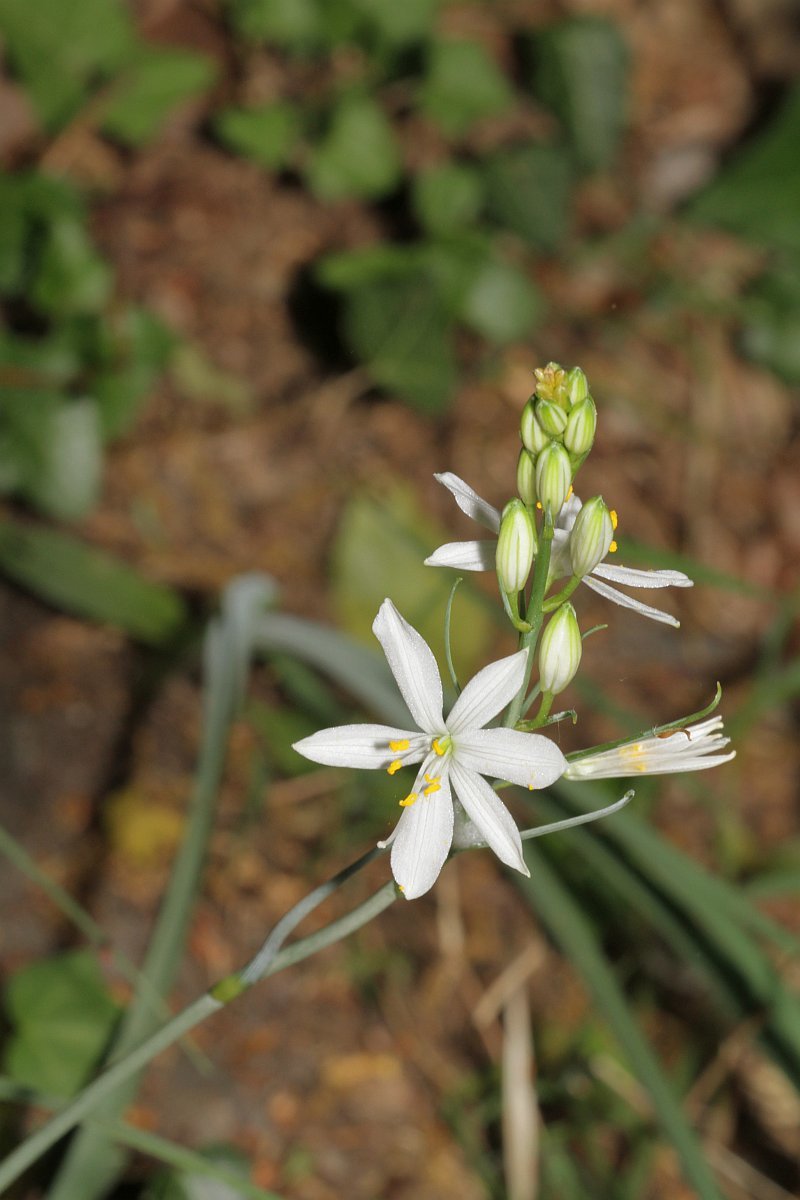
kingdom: Plantae
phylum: Tracheophyta
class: Liliopsida
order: Asparagales
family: Asparagaceae
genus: Anthericum
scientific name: Anthericum liliago
